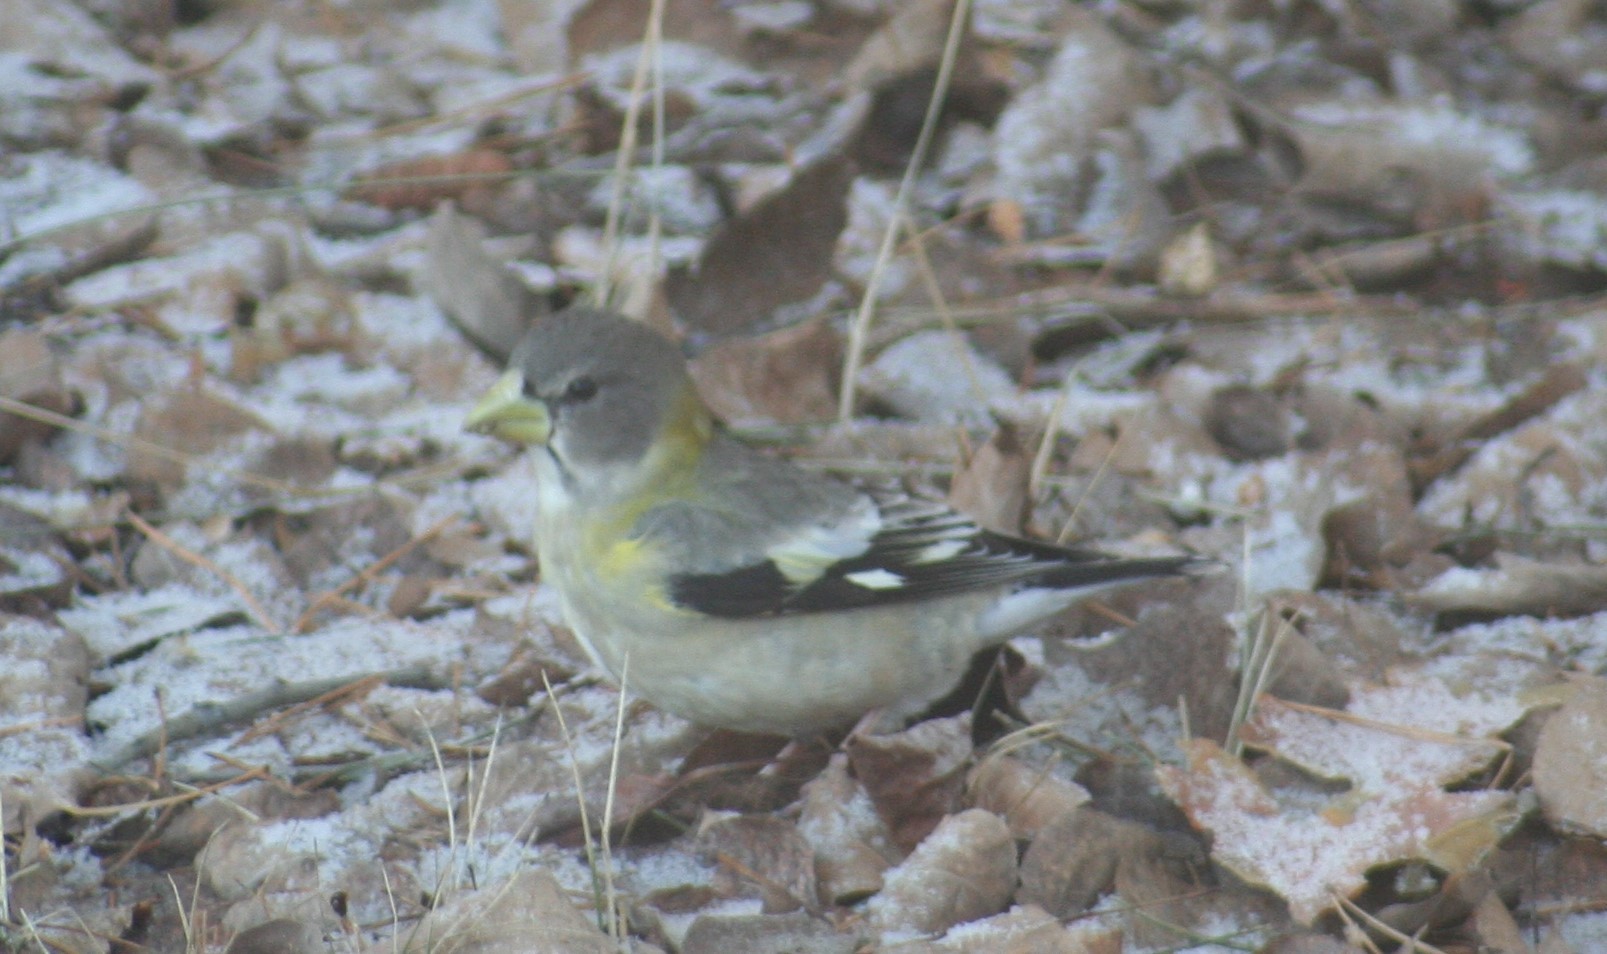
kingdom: Animalia
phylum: Chordata
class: Aves
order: Passeriformes
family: Fringillidae
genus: Hesperiphona
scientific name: Hesperiphona vespertina
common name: Evening grosbeak
